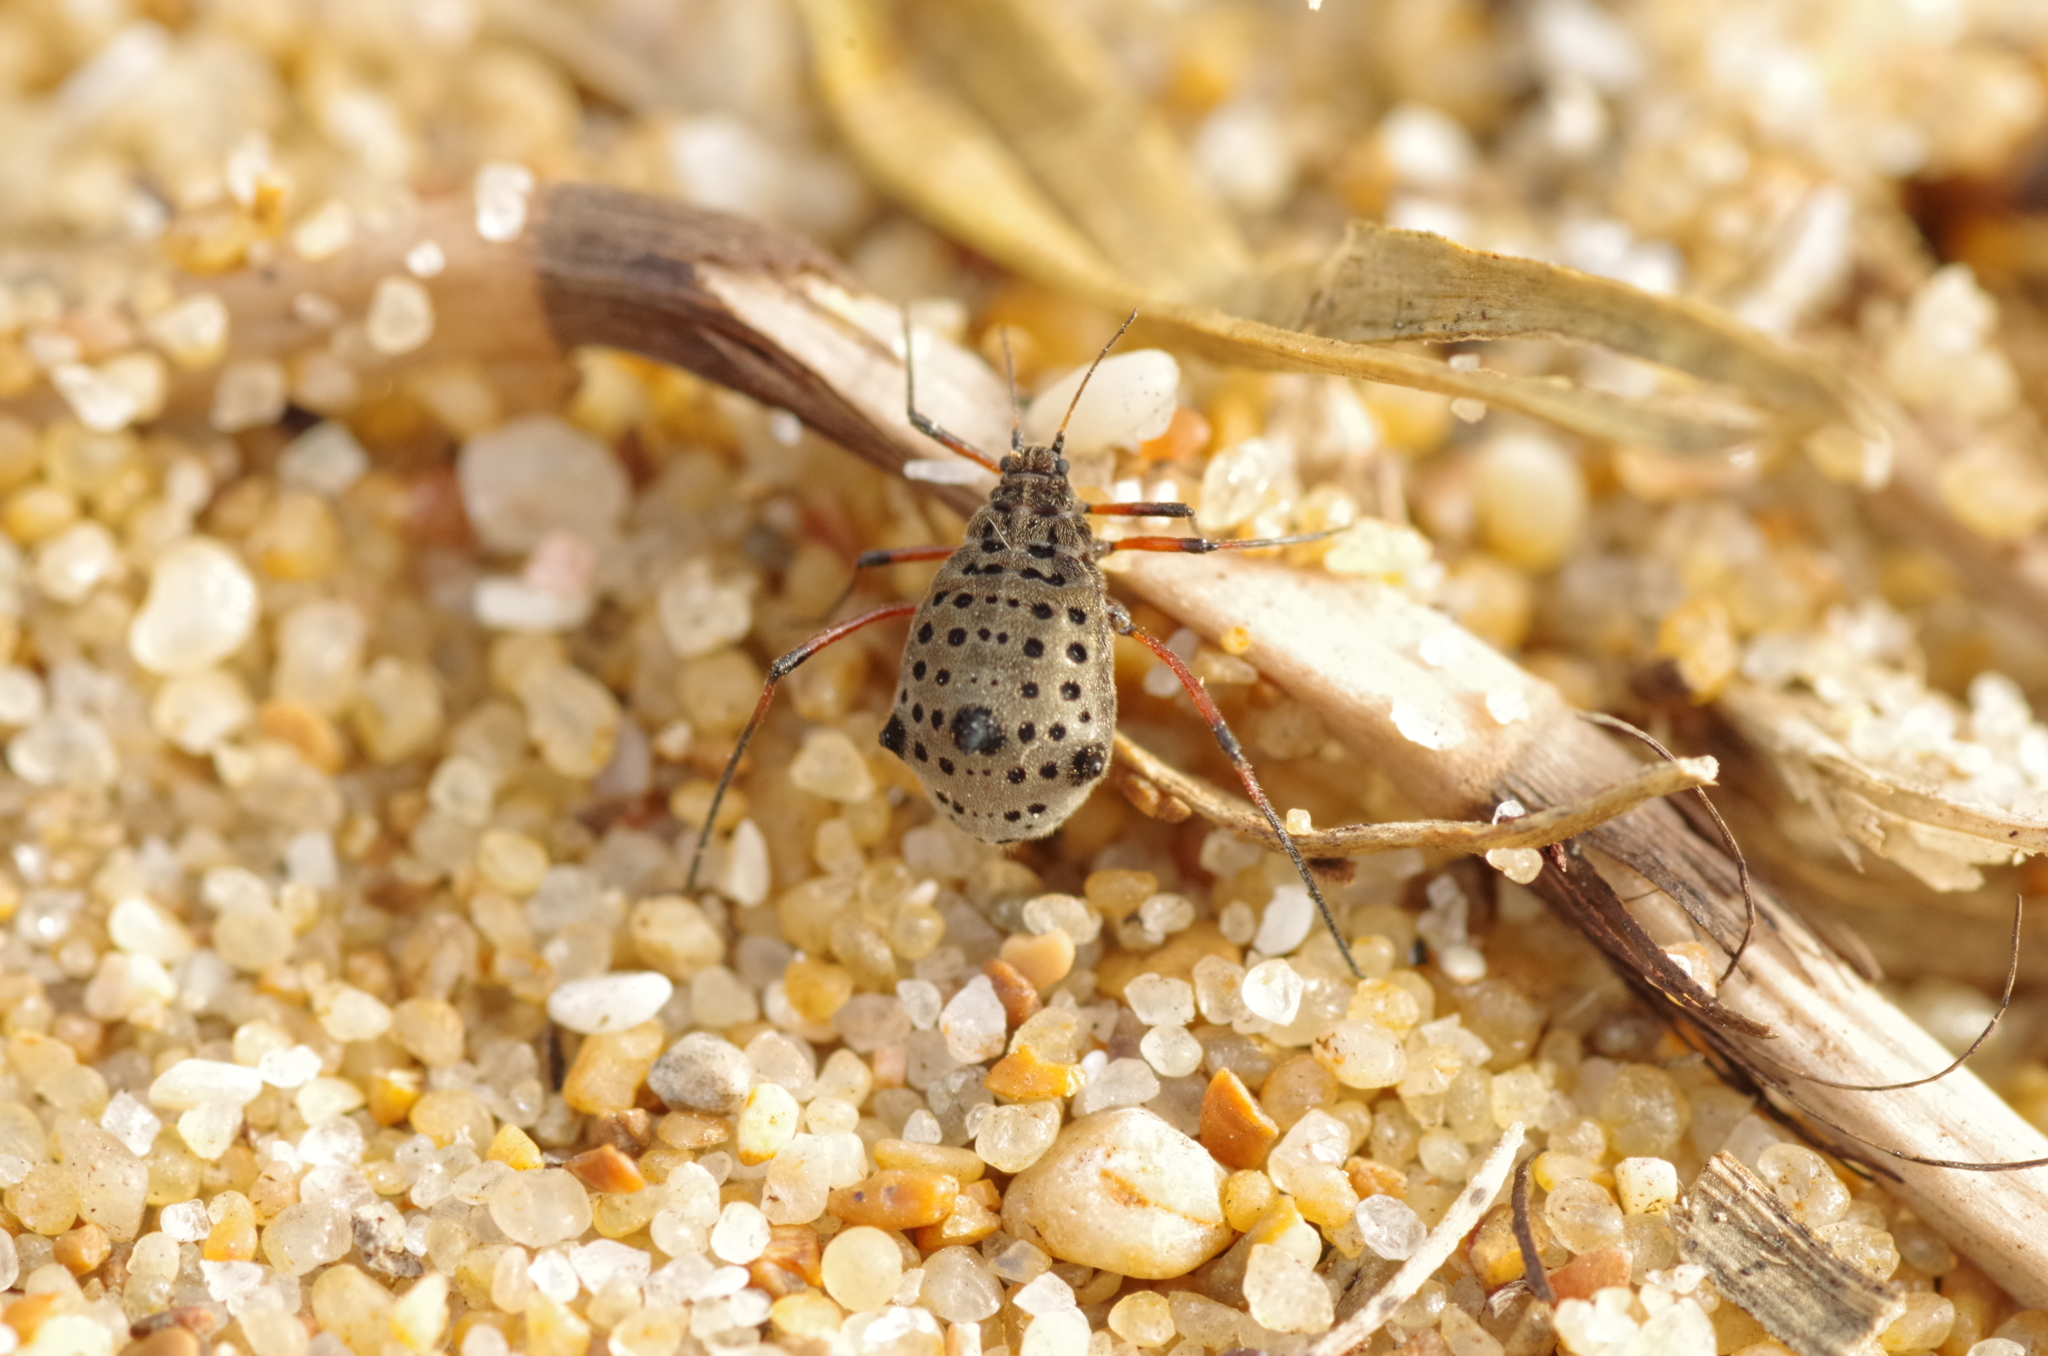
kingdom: Animalia
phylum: Arthropoda
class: Insecta
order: Hemiptera
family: Aphididae
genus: Tuberolachnus
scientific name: Tuberolachnus salignus
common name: Giant willow aphid
